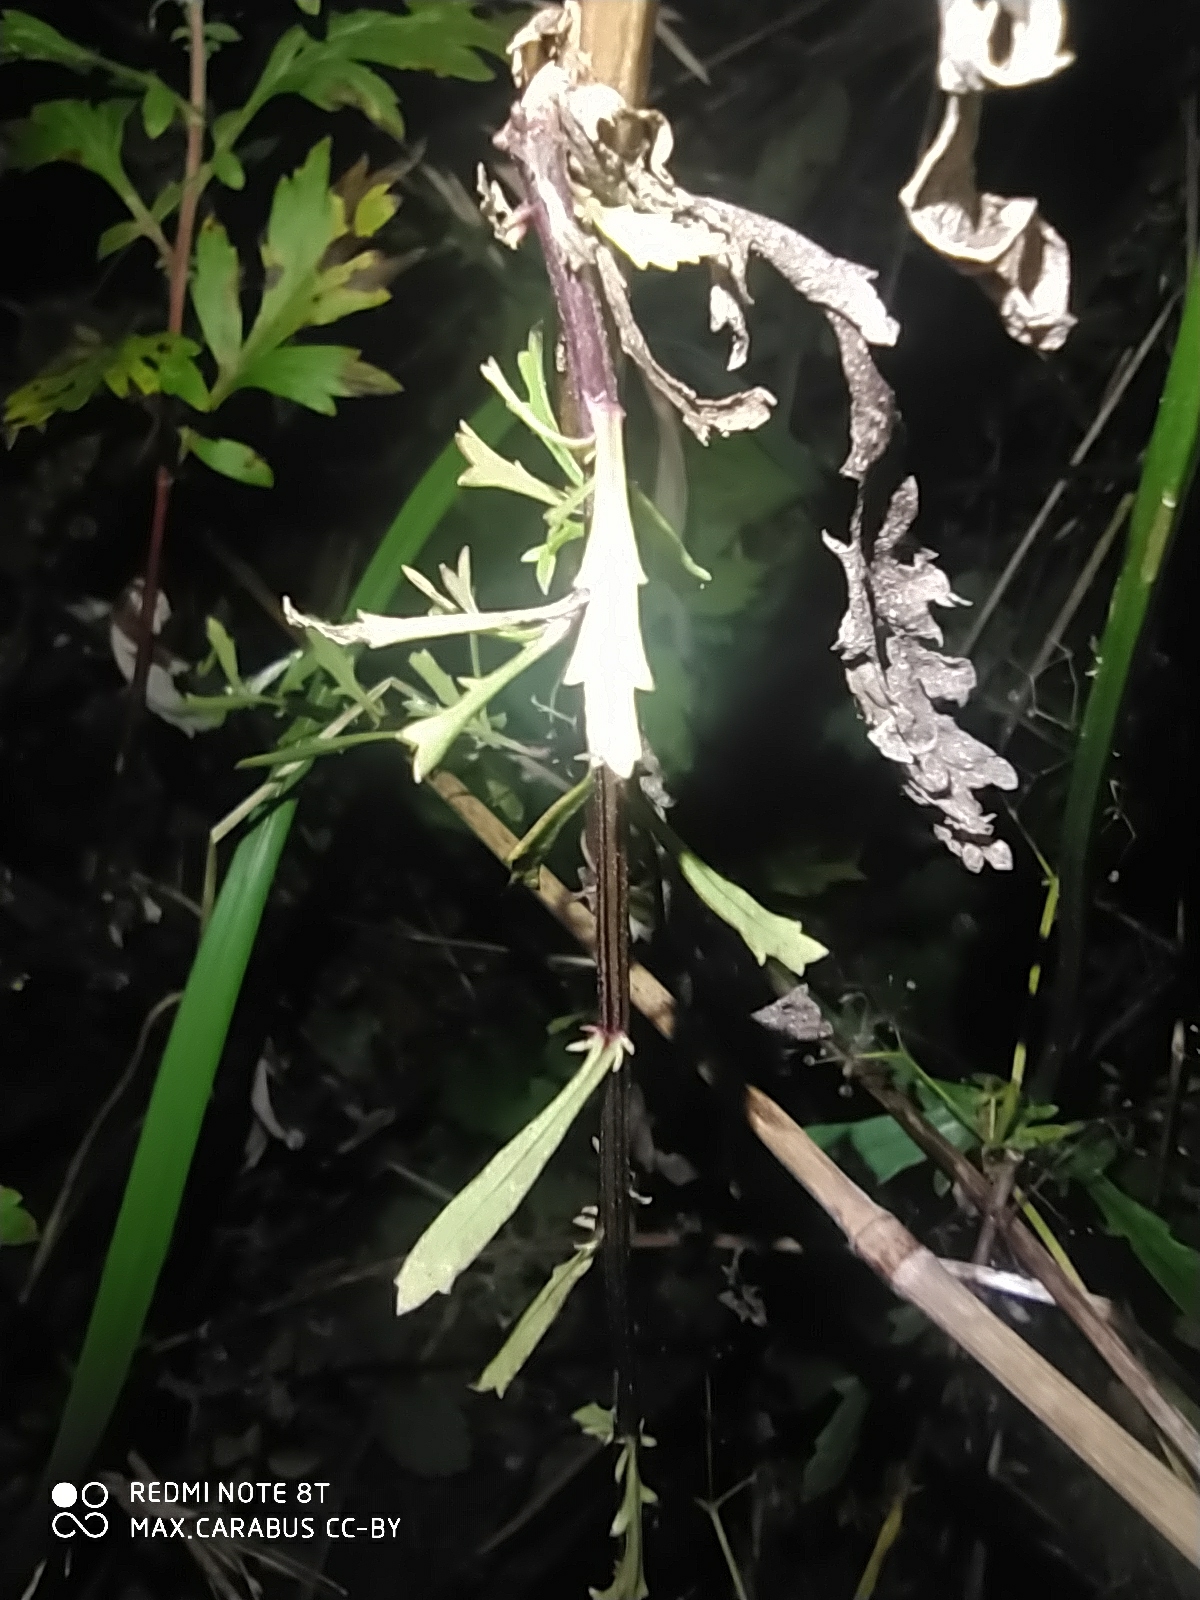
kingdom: Plantae
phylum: Tracheophyta
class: Magnoliopsida
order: Asterales
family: Asteraceae
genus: Leucanthemum
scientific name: Leucanthemum vulgare
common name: Oxeye daisy
